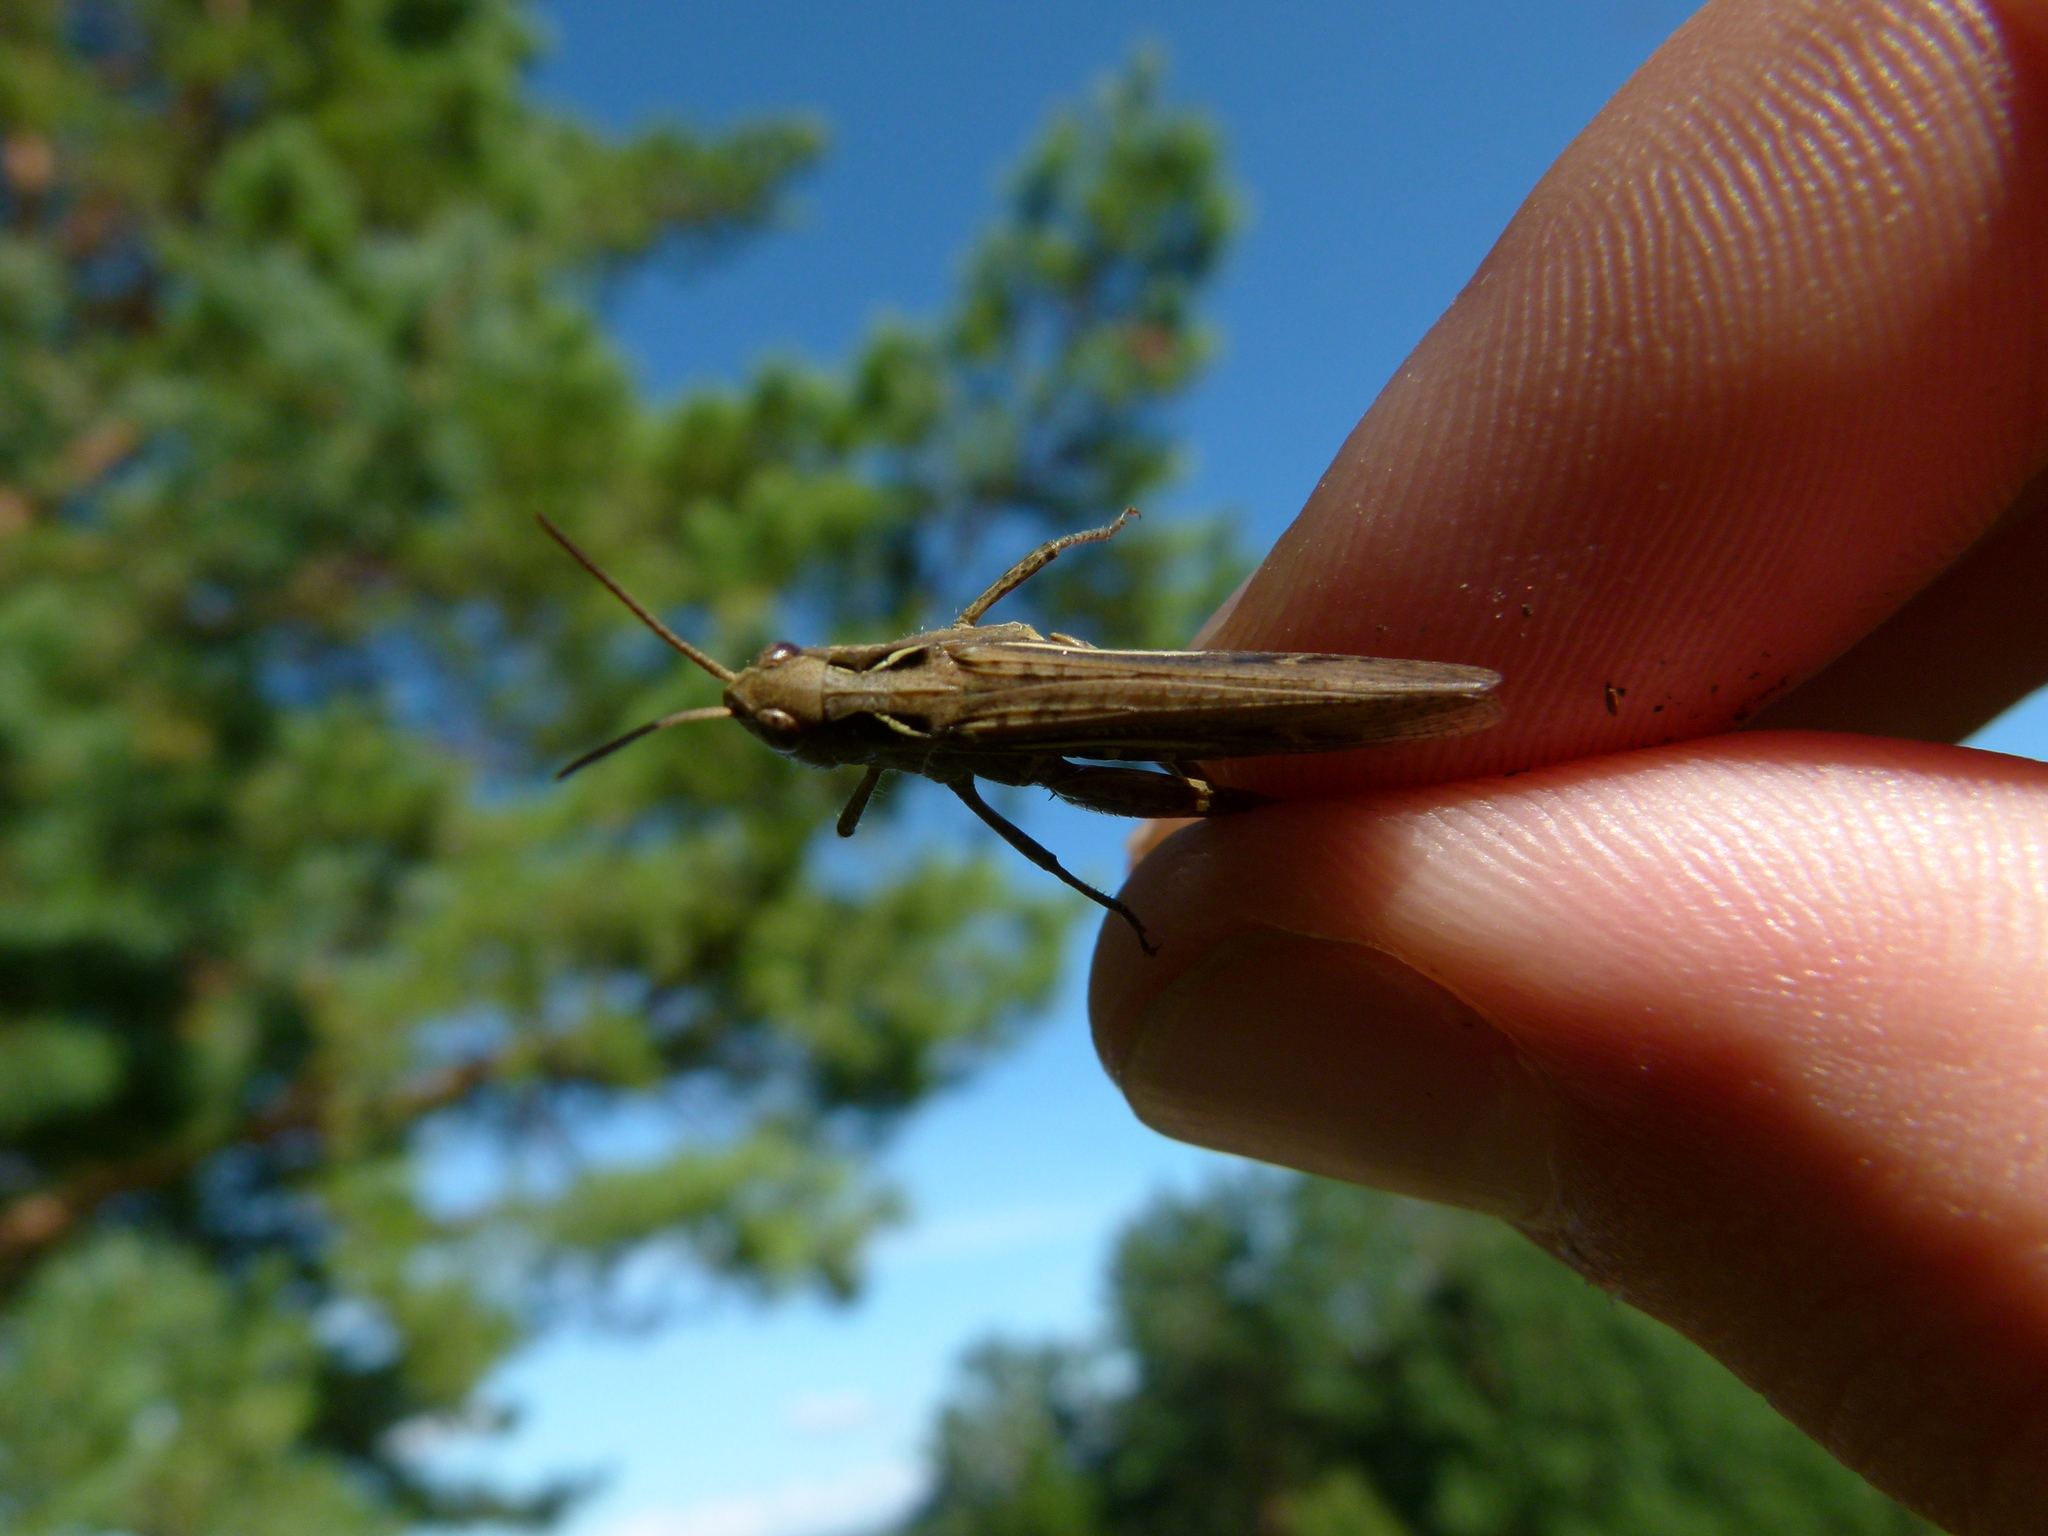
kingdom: Animalia
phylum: Arthropoda
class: Insecta
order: Orthoptera
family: Acrididae
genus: Chorthippus
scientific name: Chorthippus brunneus
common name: Field grasshopper
